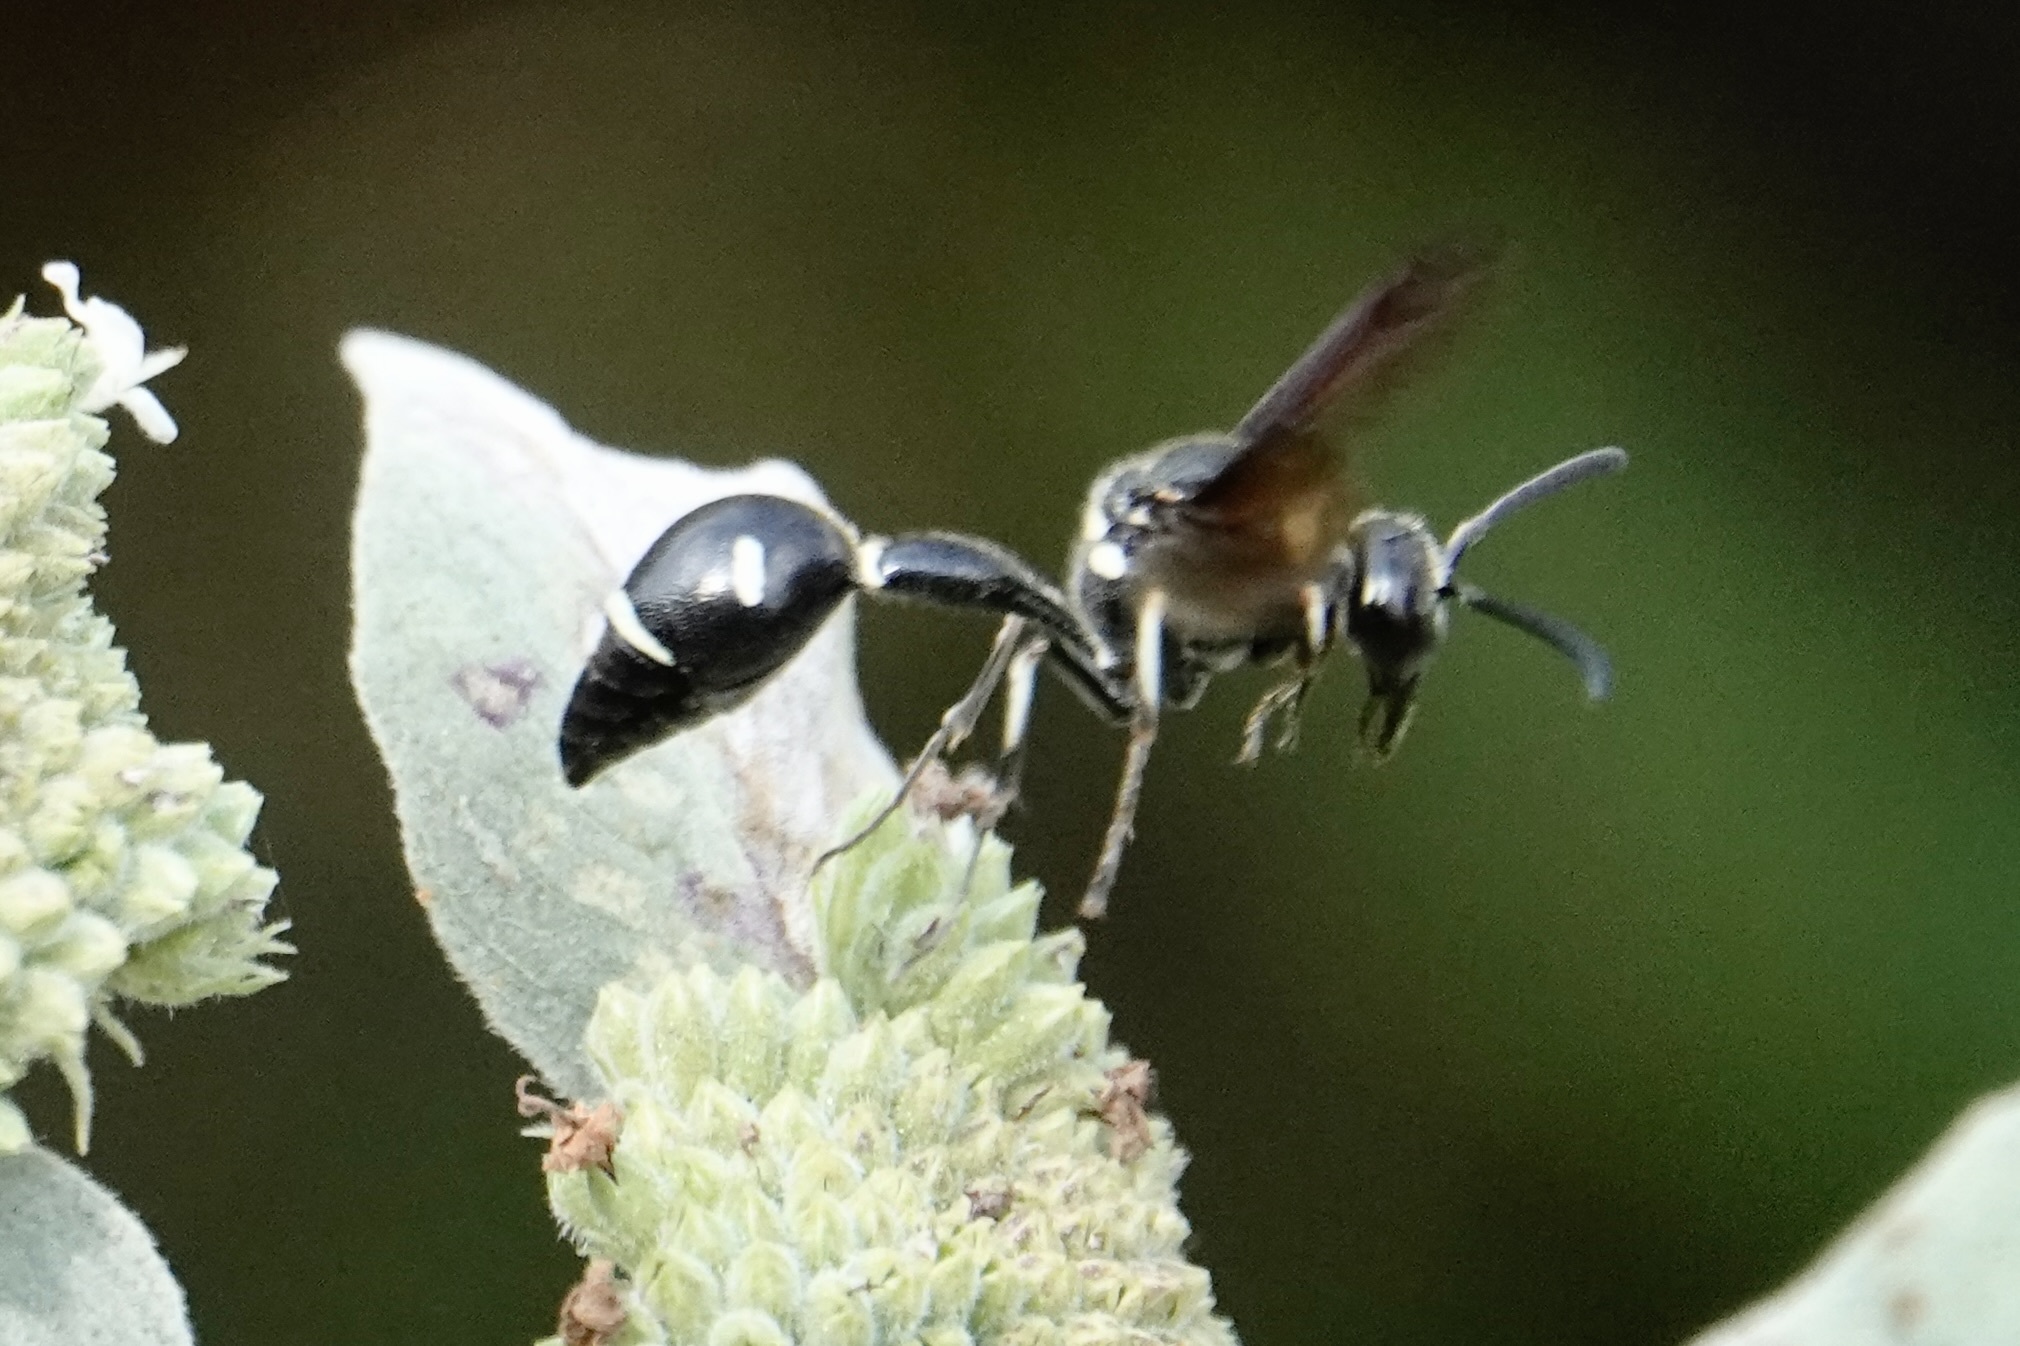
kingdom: Animalia
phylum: Arthropoda
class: Insecta
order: Hymenoptera
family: Vespidae
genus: Eumenes
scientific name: Eumenes fraternus
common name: Fraternal potter wasp
